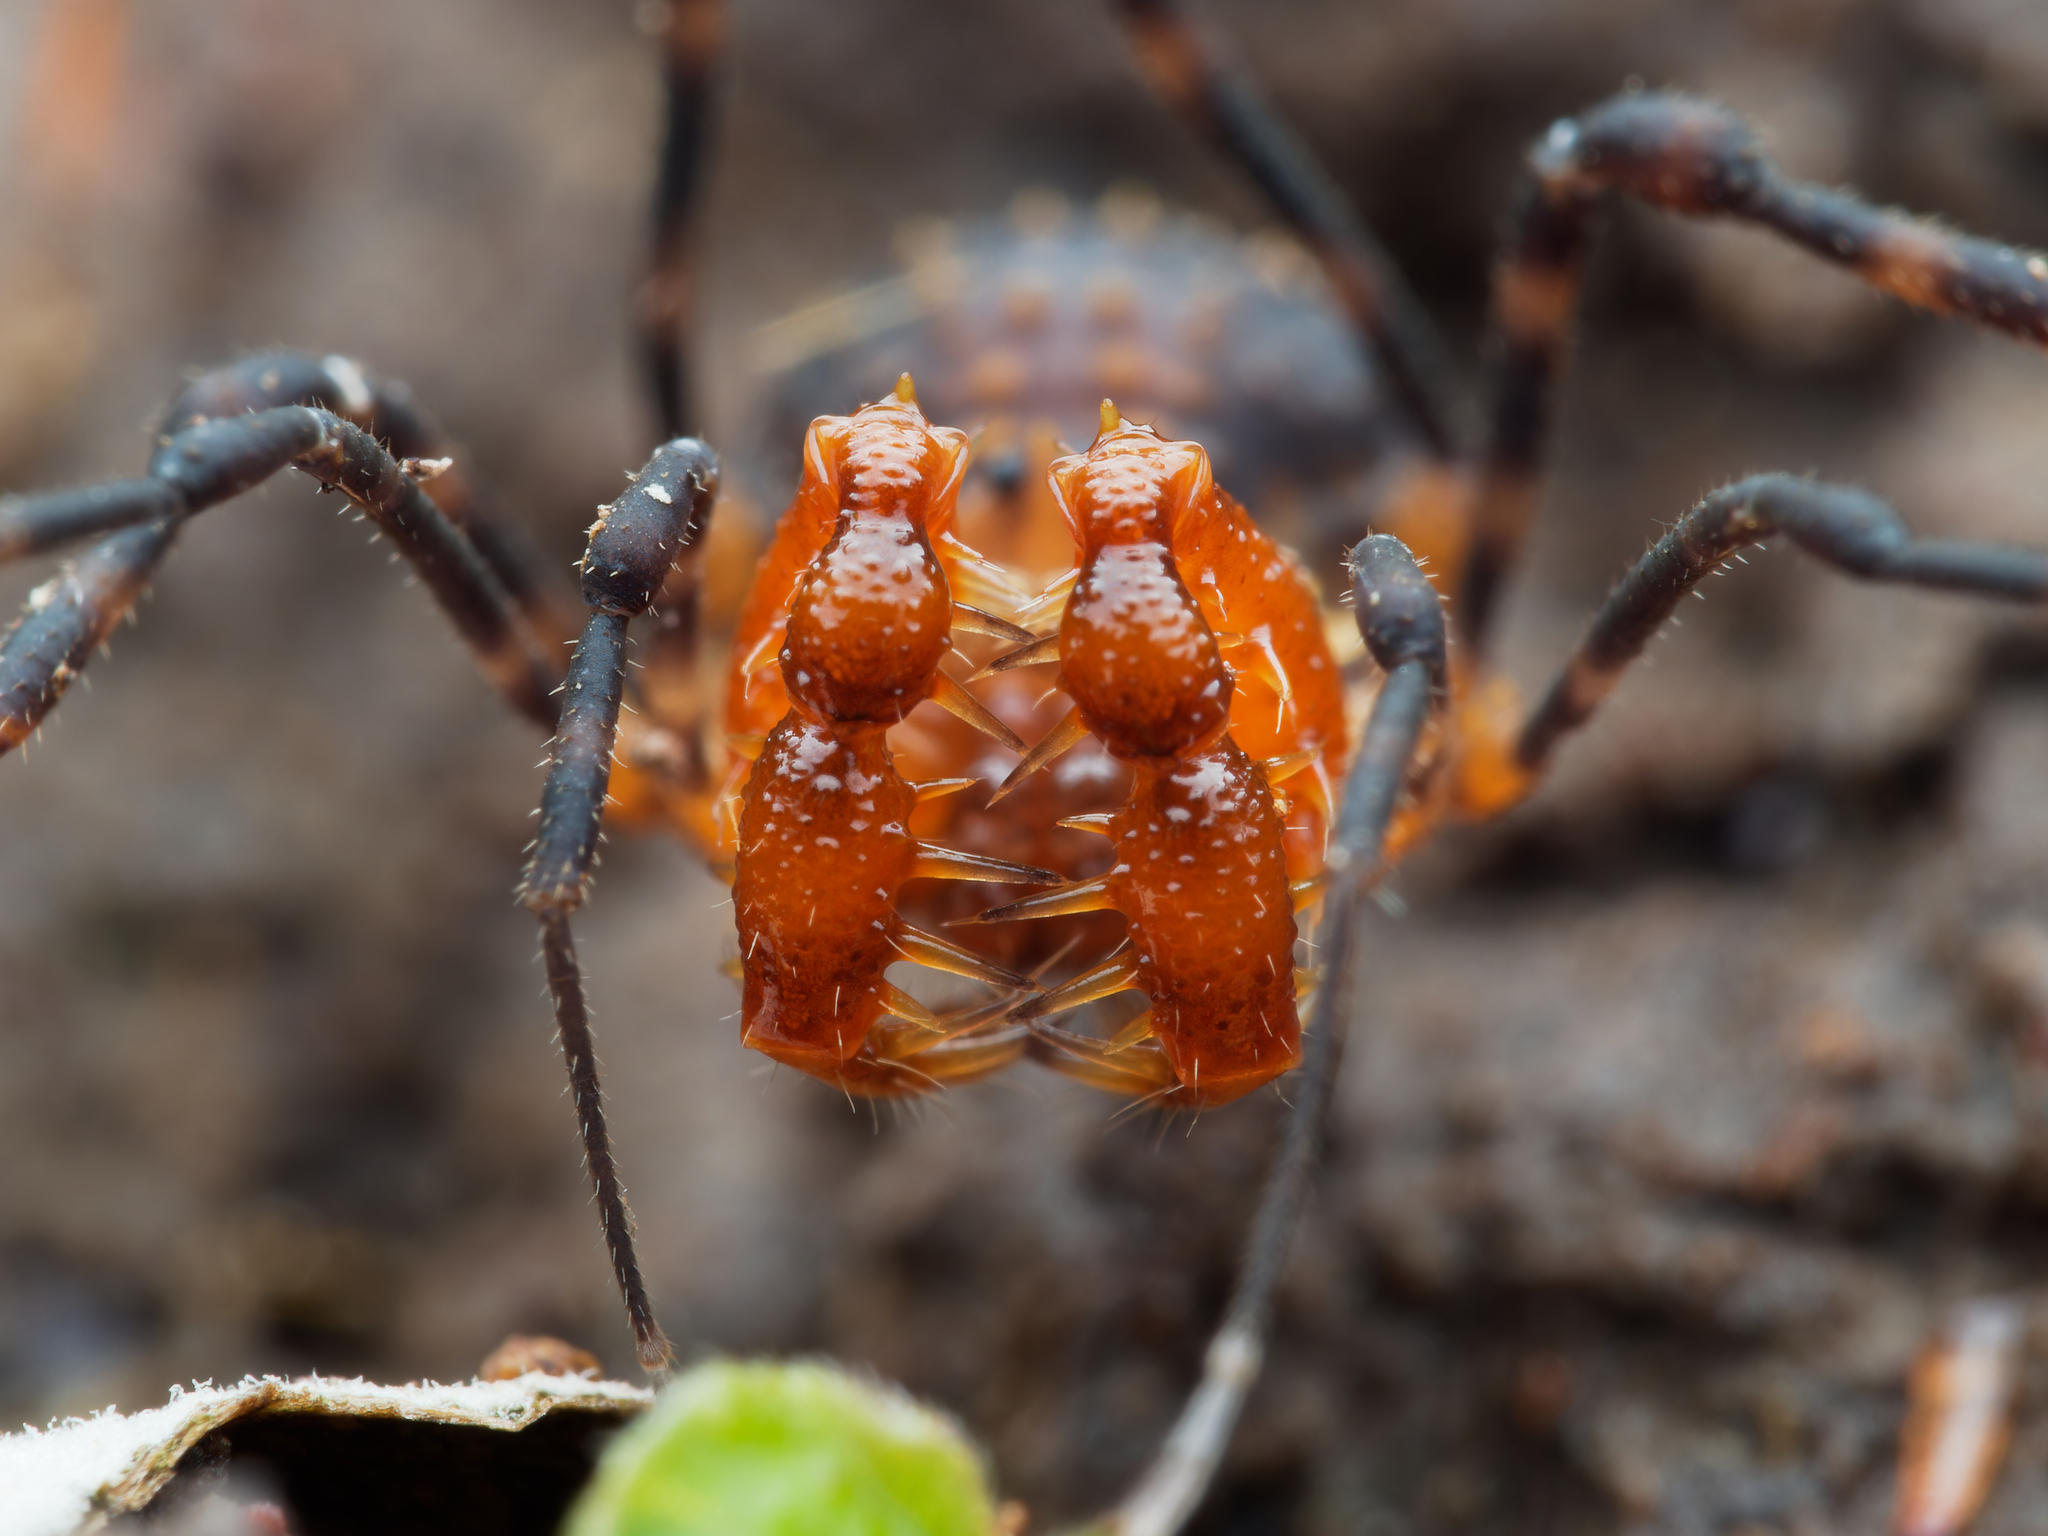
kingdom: Animalia
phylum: Arthropoda
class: Arachnida
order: Opiliones
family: Triaenonychidae
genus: Sorensenella
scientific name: Sorensenella prehensor
